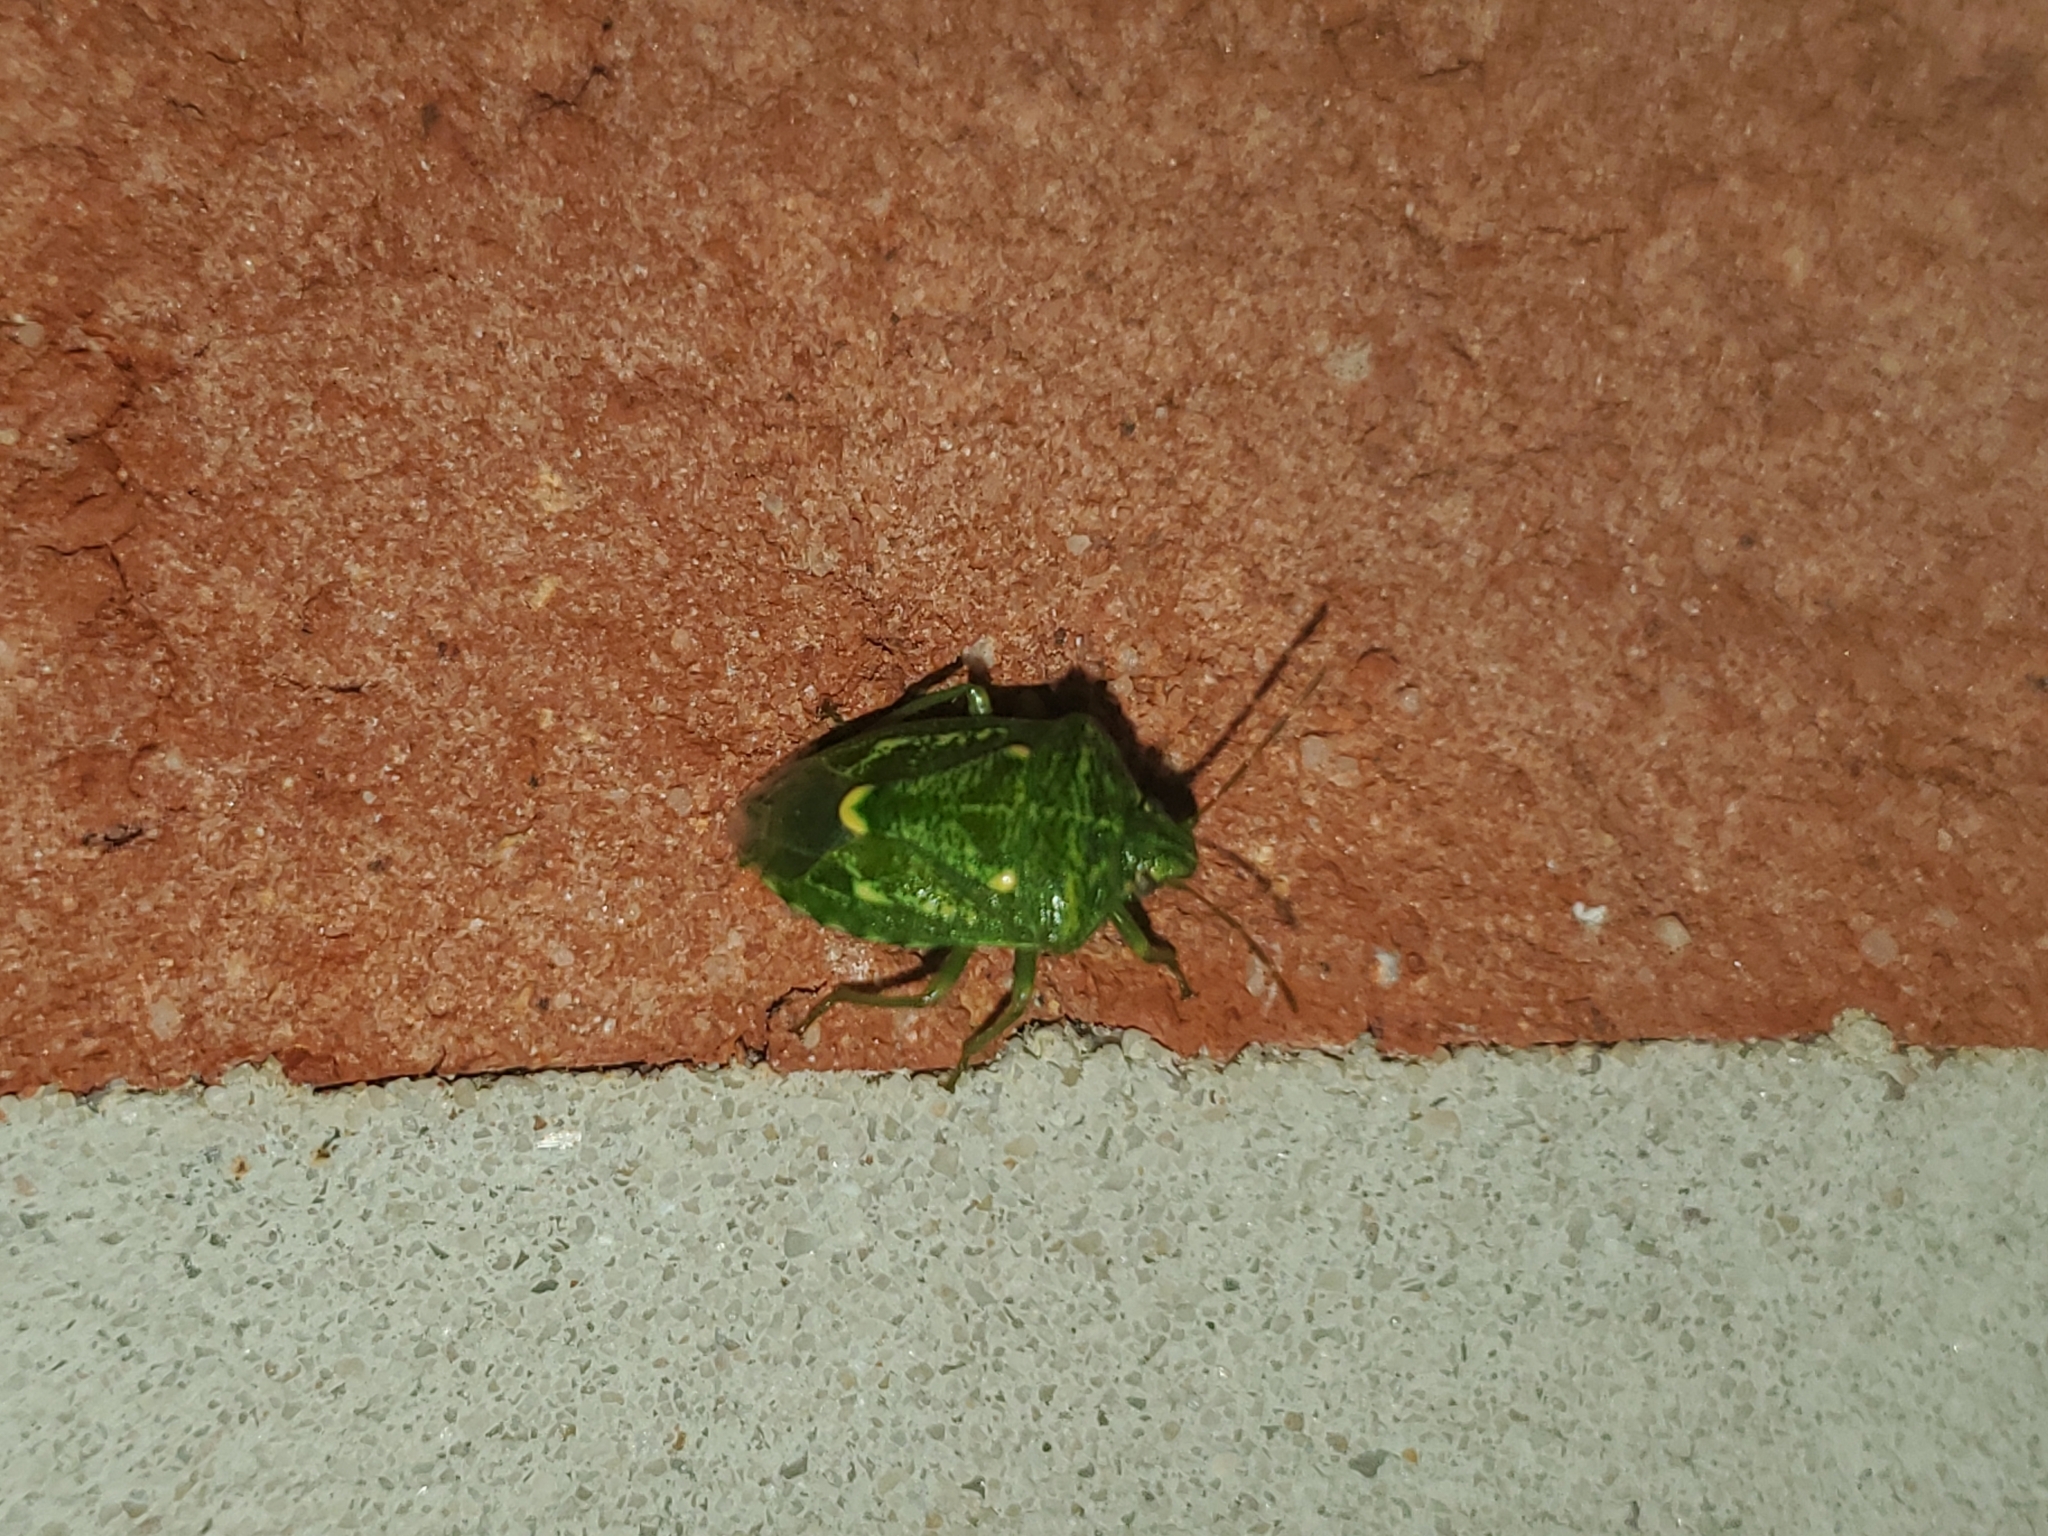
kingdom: Animalia
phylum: Arthropoda
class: Insecta
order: Hemiptera
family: Pentatomidae
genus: Banasa
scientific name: Banasa euchlora
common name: Cedar berry bug
